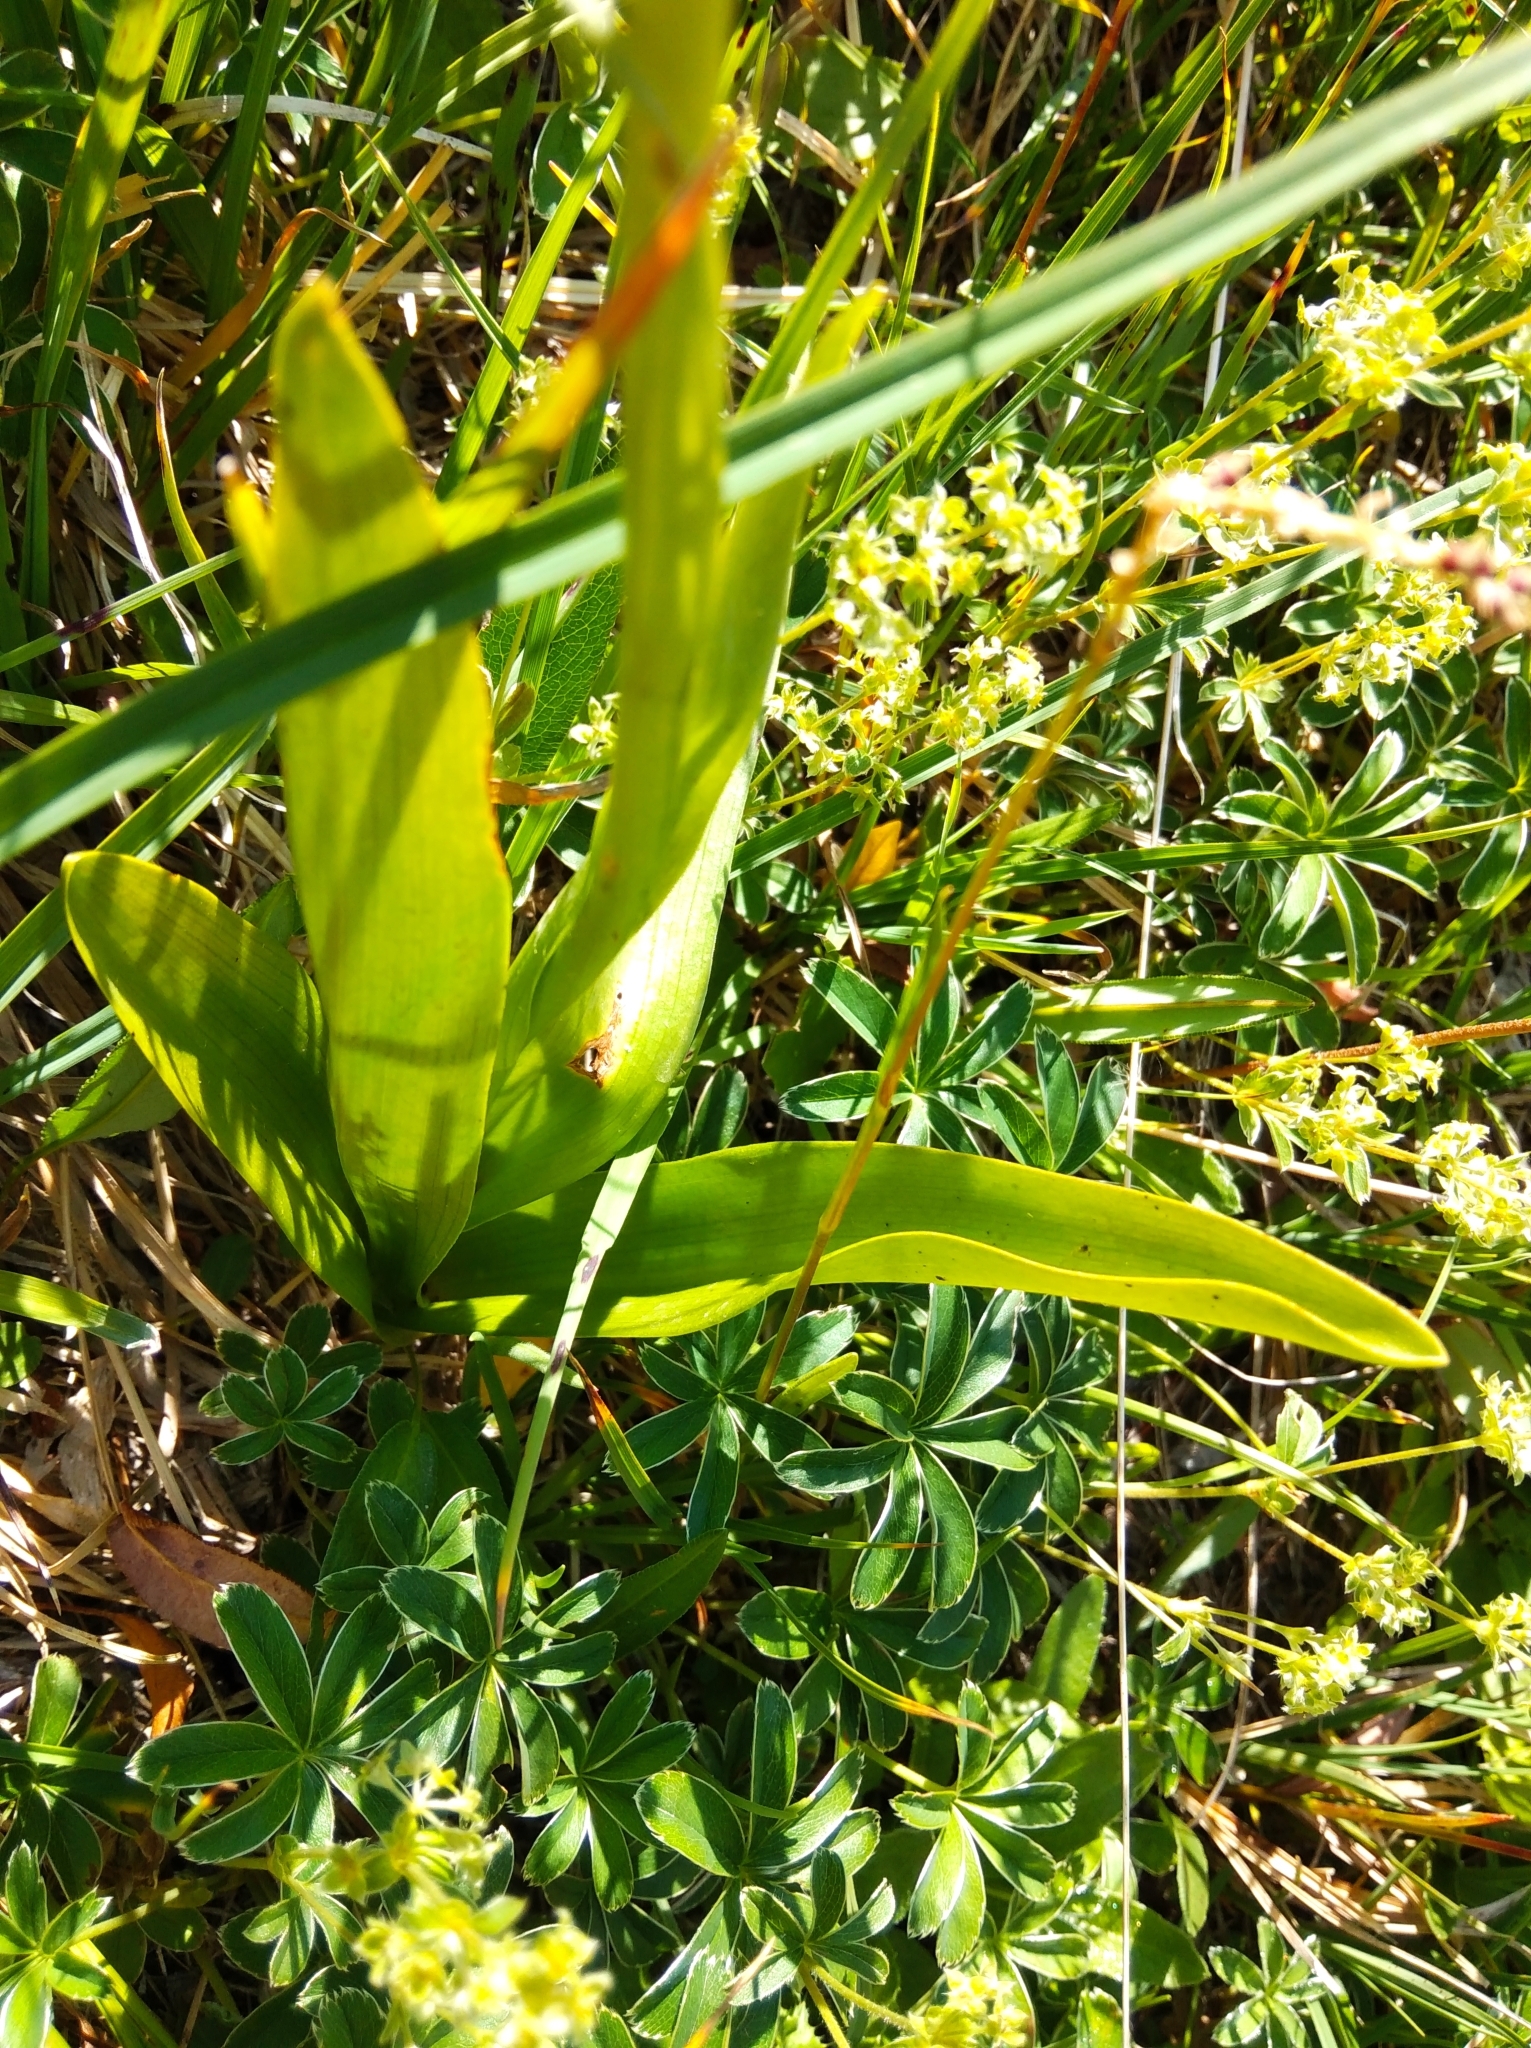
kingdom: Plantae
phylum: Tracheophyta
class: Liliopsida
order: Asparagales
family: Orchidaceae
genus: Gymnadenia
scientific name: Gymnadenia conopsea
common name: Fragrant orchid
